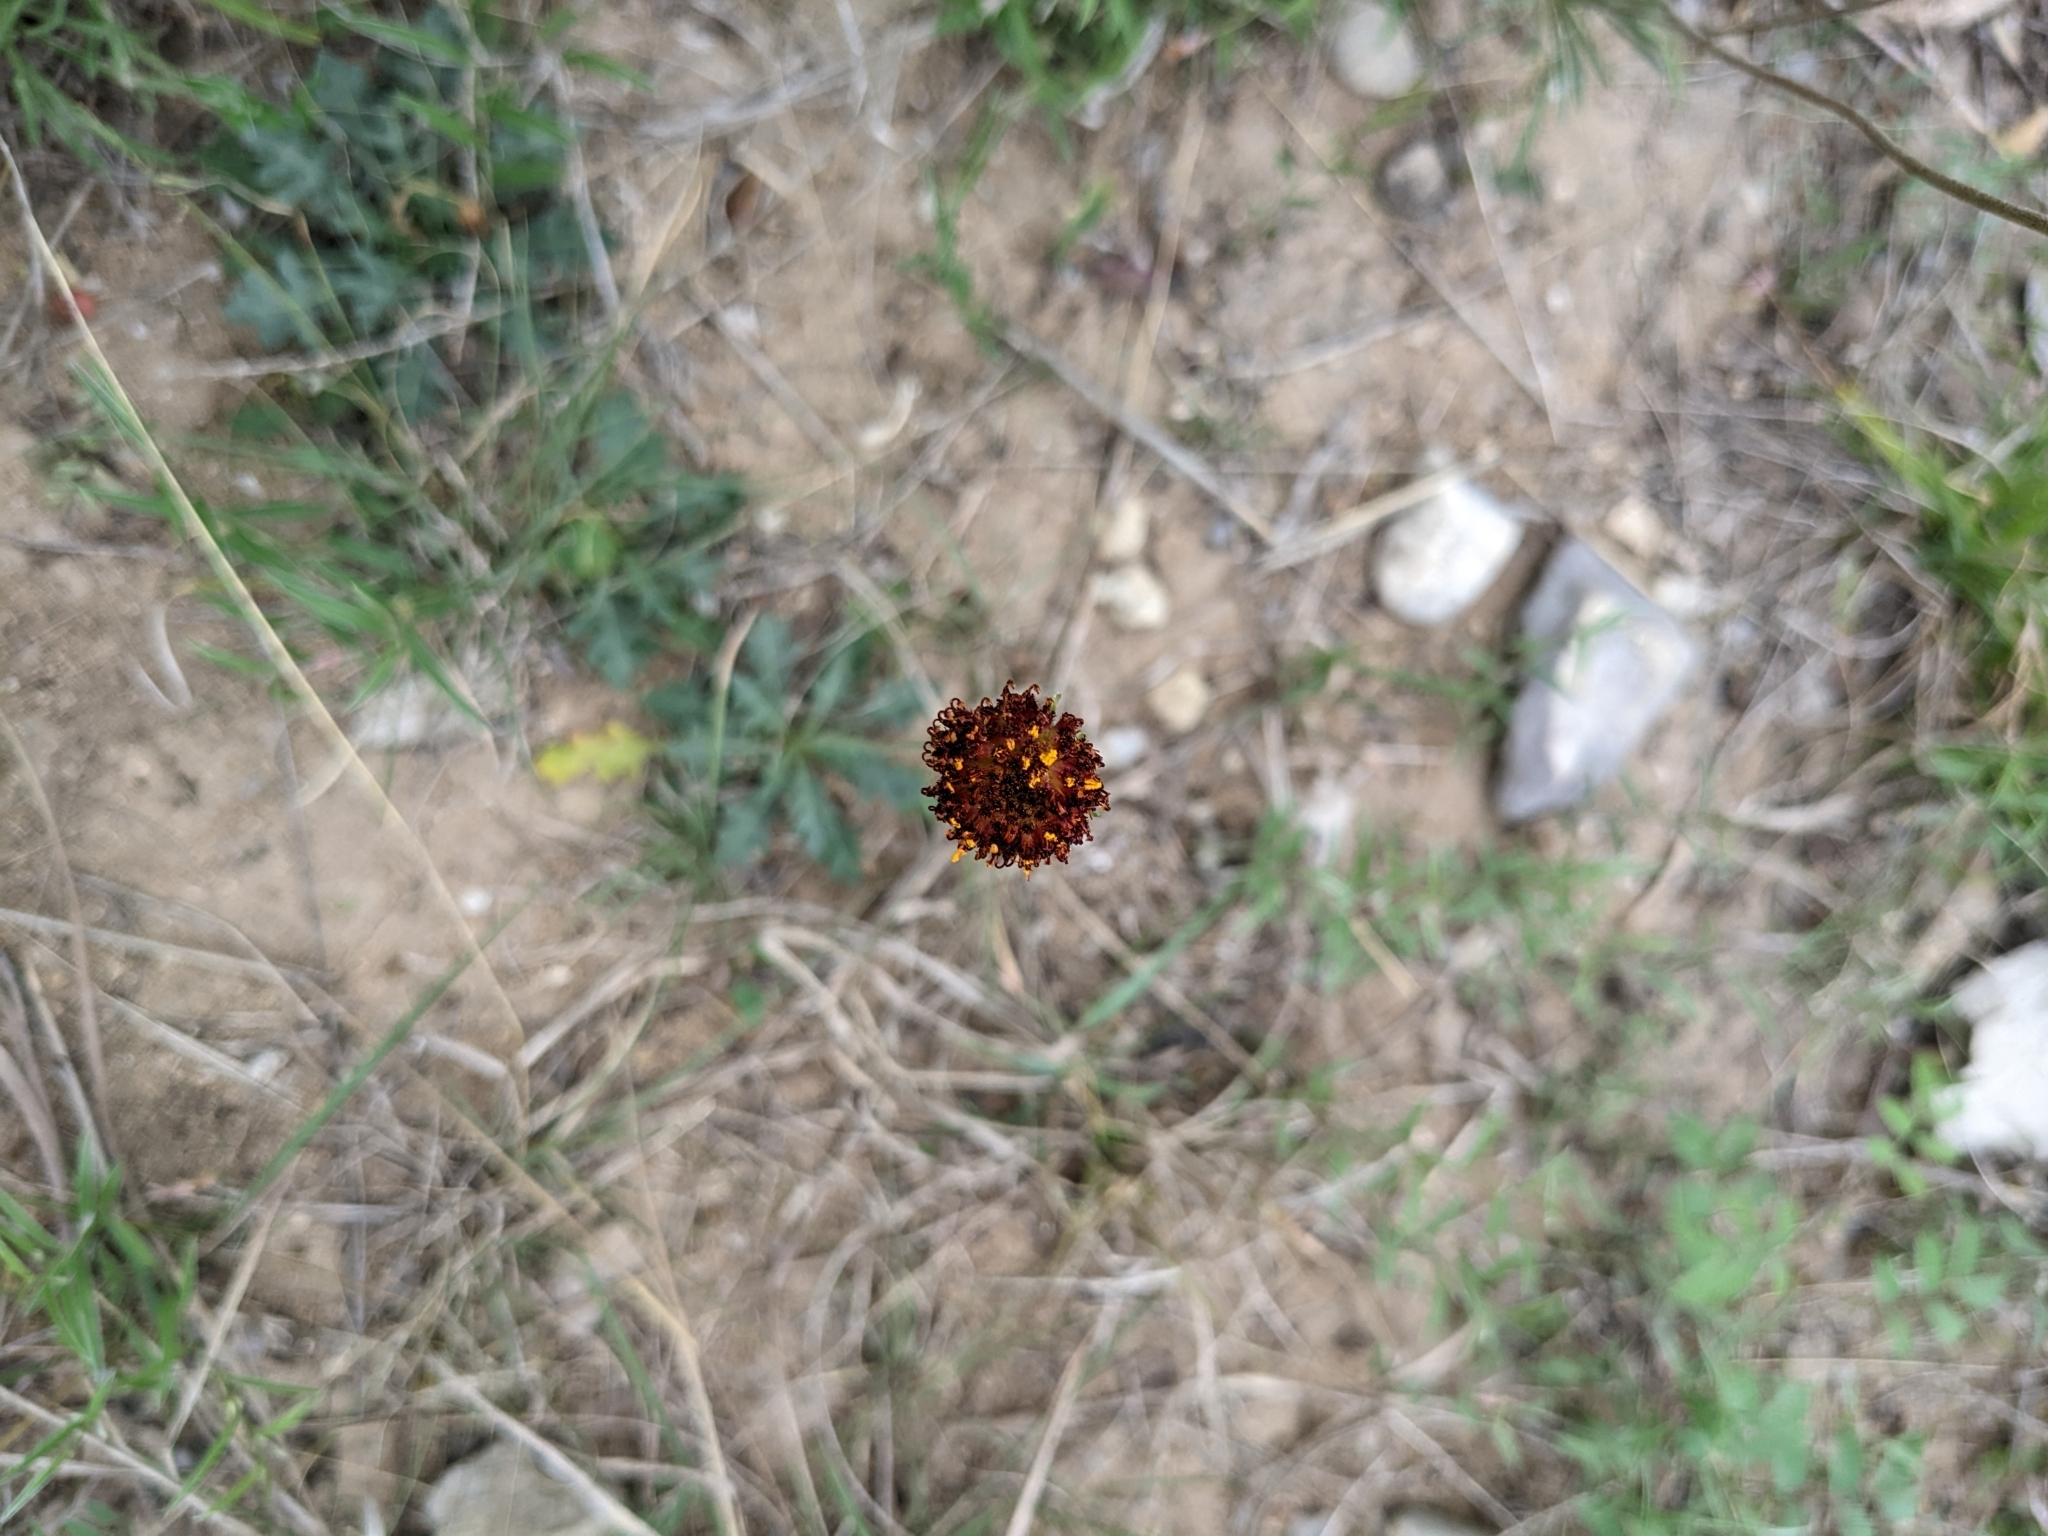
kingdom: Plantae
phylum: Tracheophyta
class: Magnoliopsida
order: Asterales
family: Asteraceae
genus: Gaillardia
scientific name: Gaillardia suavis
